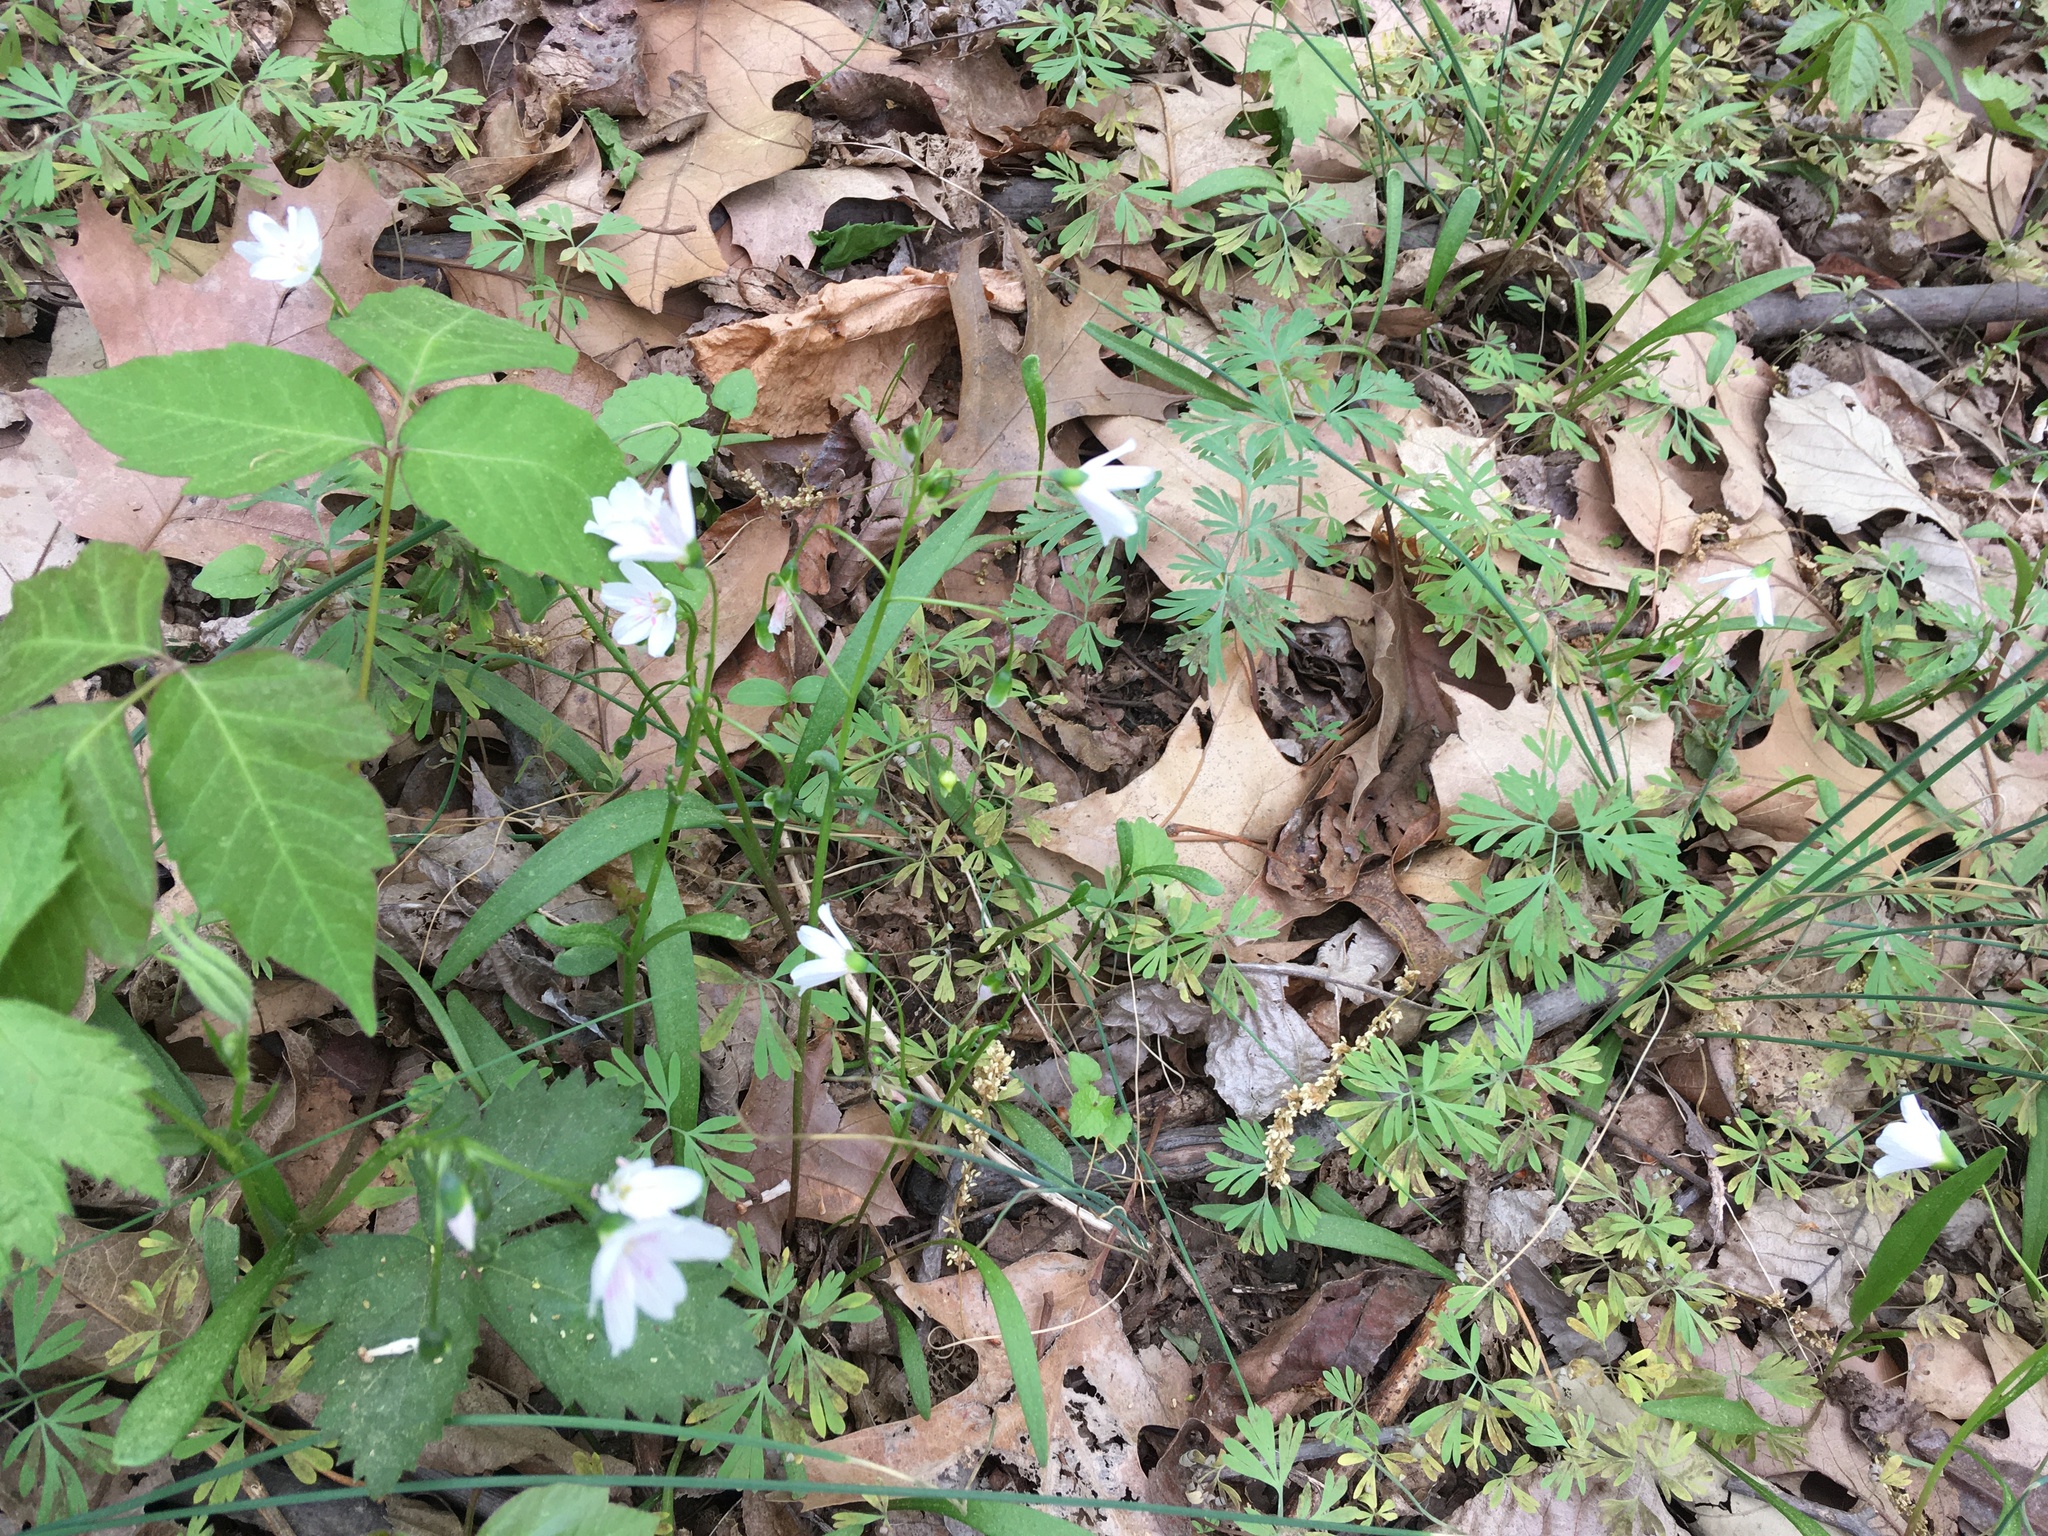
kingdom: Plantae
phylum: Tracheophyta
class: Magnoliopsida
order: Caryophyllales
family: Montiaceae
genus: Claytonia
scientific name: Claytonia virginica
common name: Virginia springbeauty
